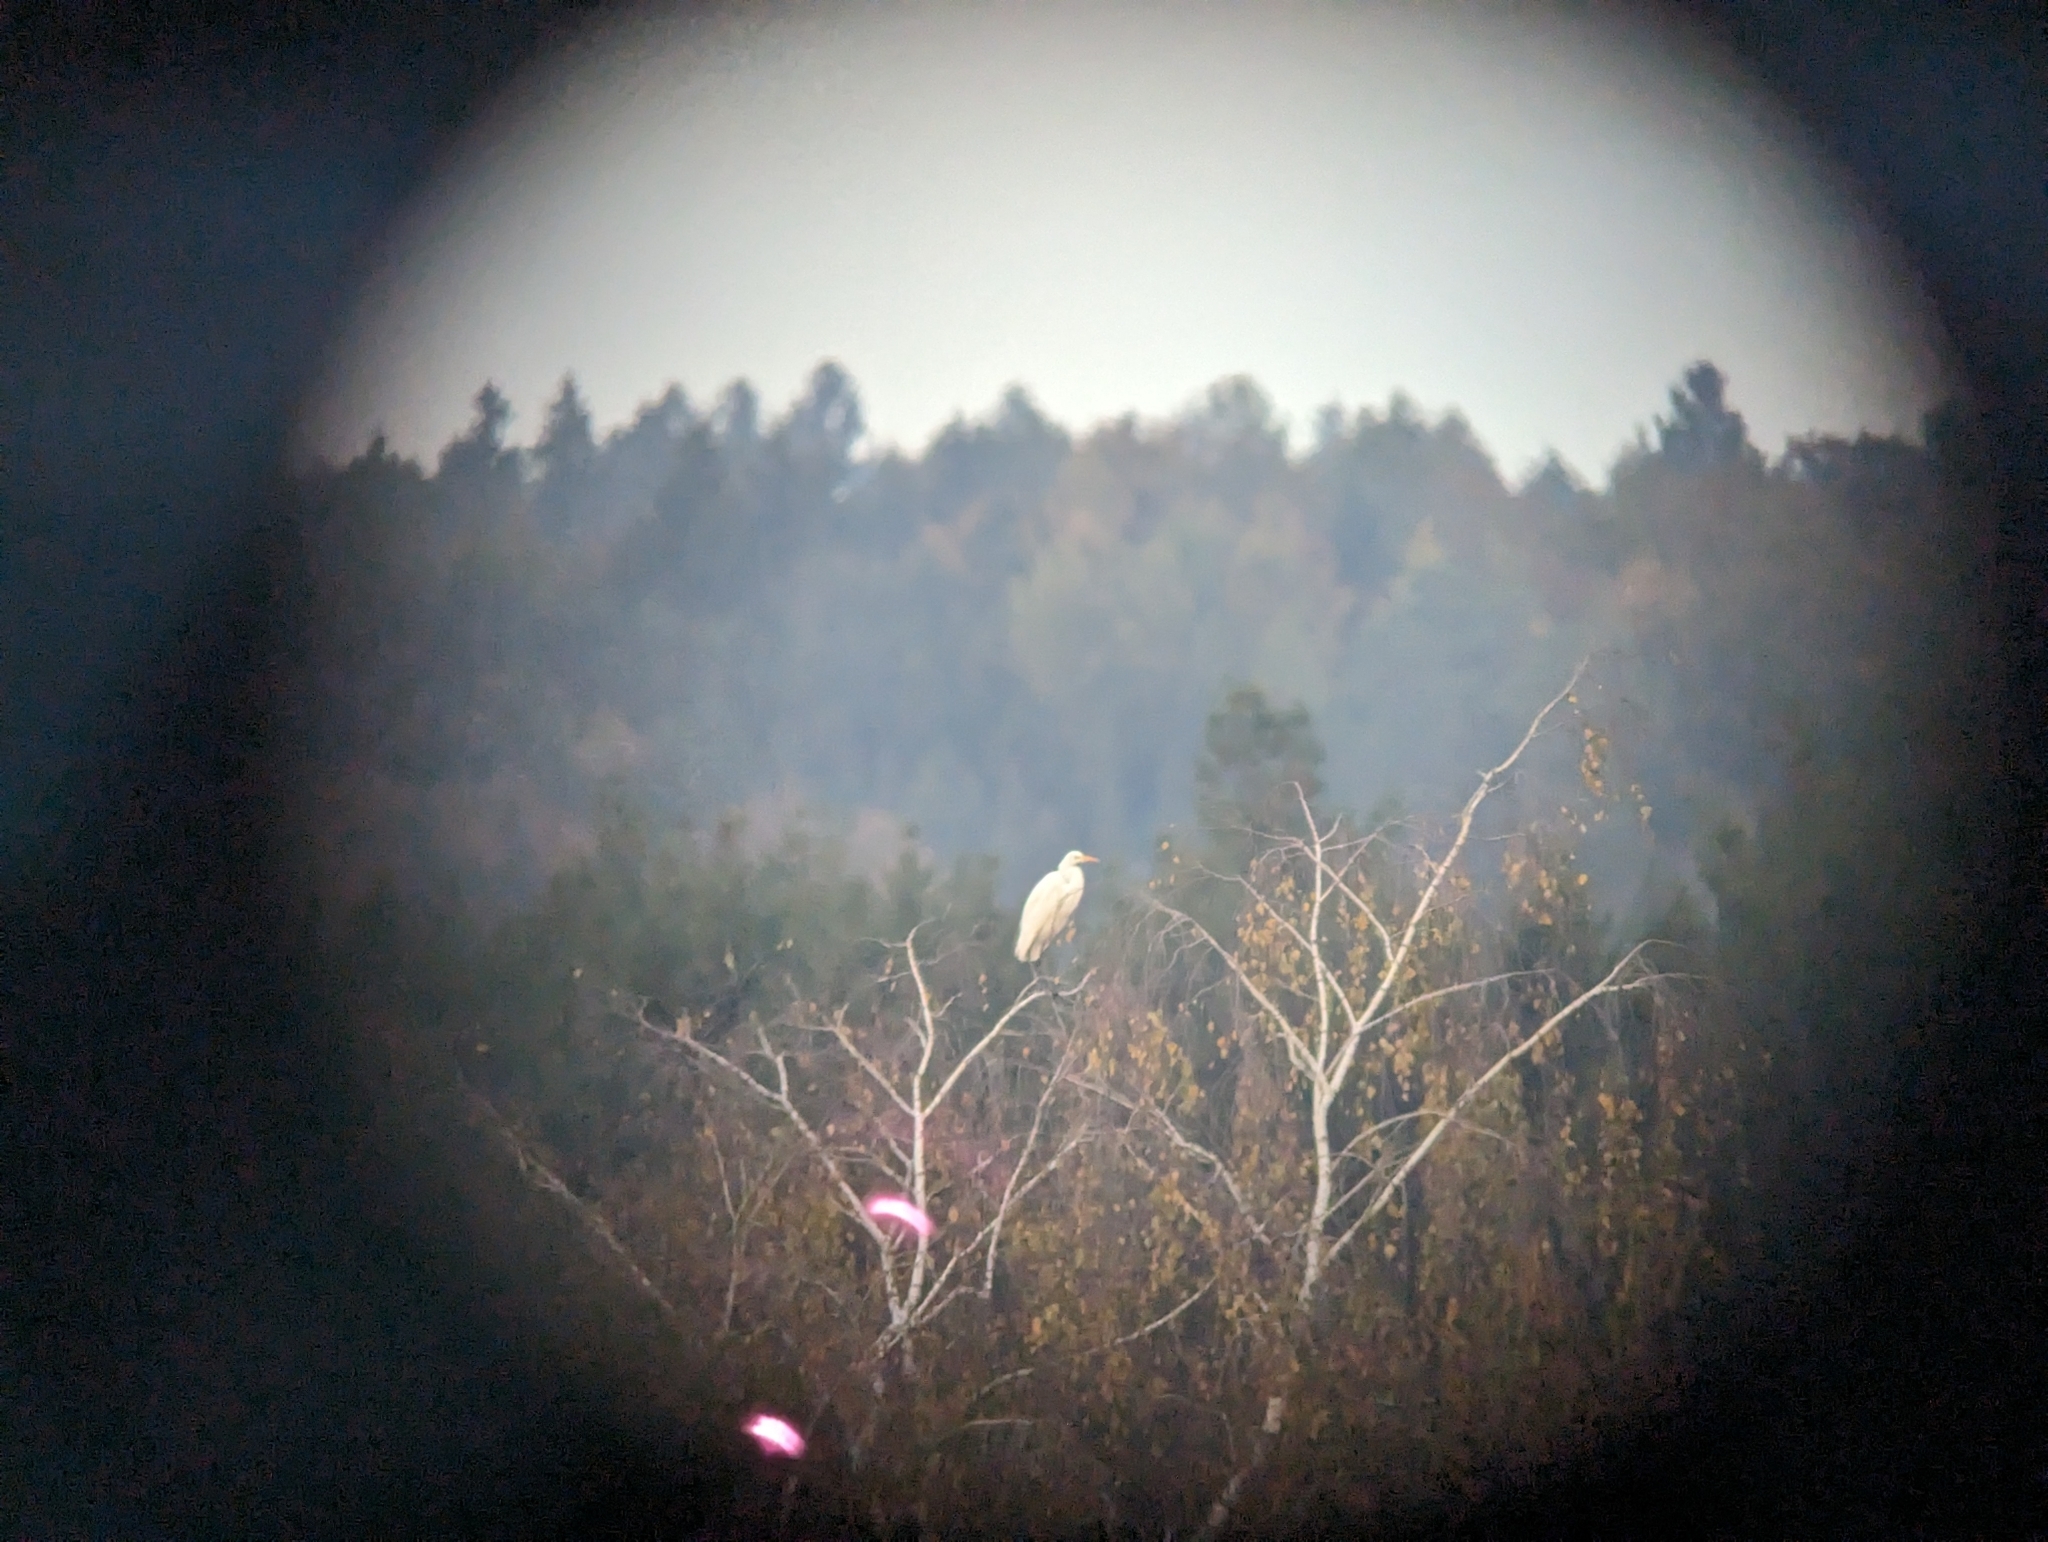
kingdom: Animalia
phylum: Chordata
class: Aves
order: Pelecaniformes
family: Ardeidae
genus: Ardea
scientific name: Ardea alba
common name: Great egret
